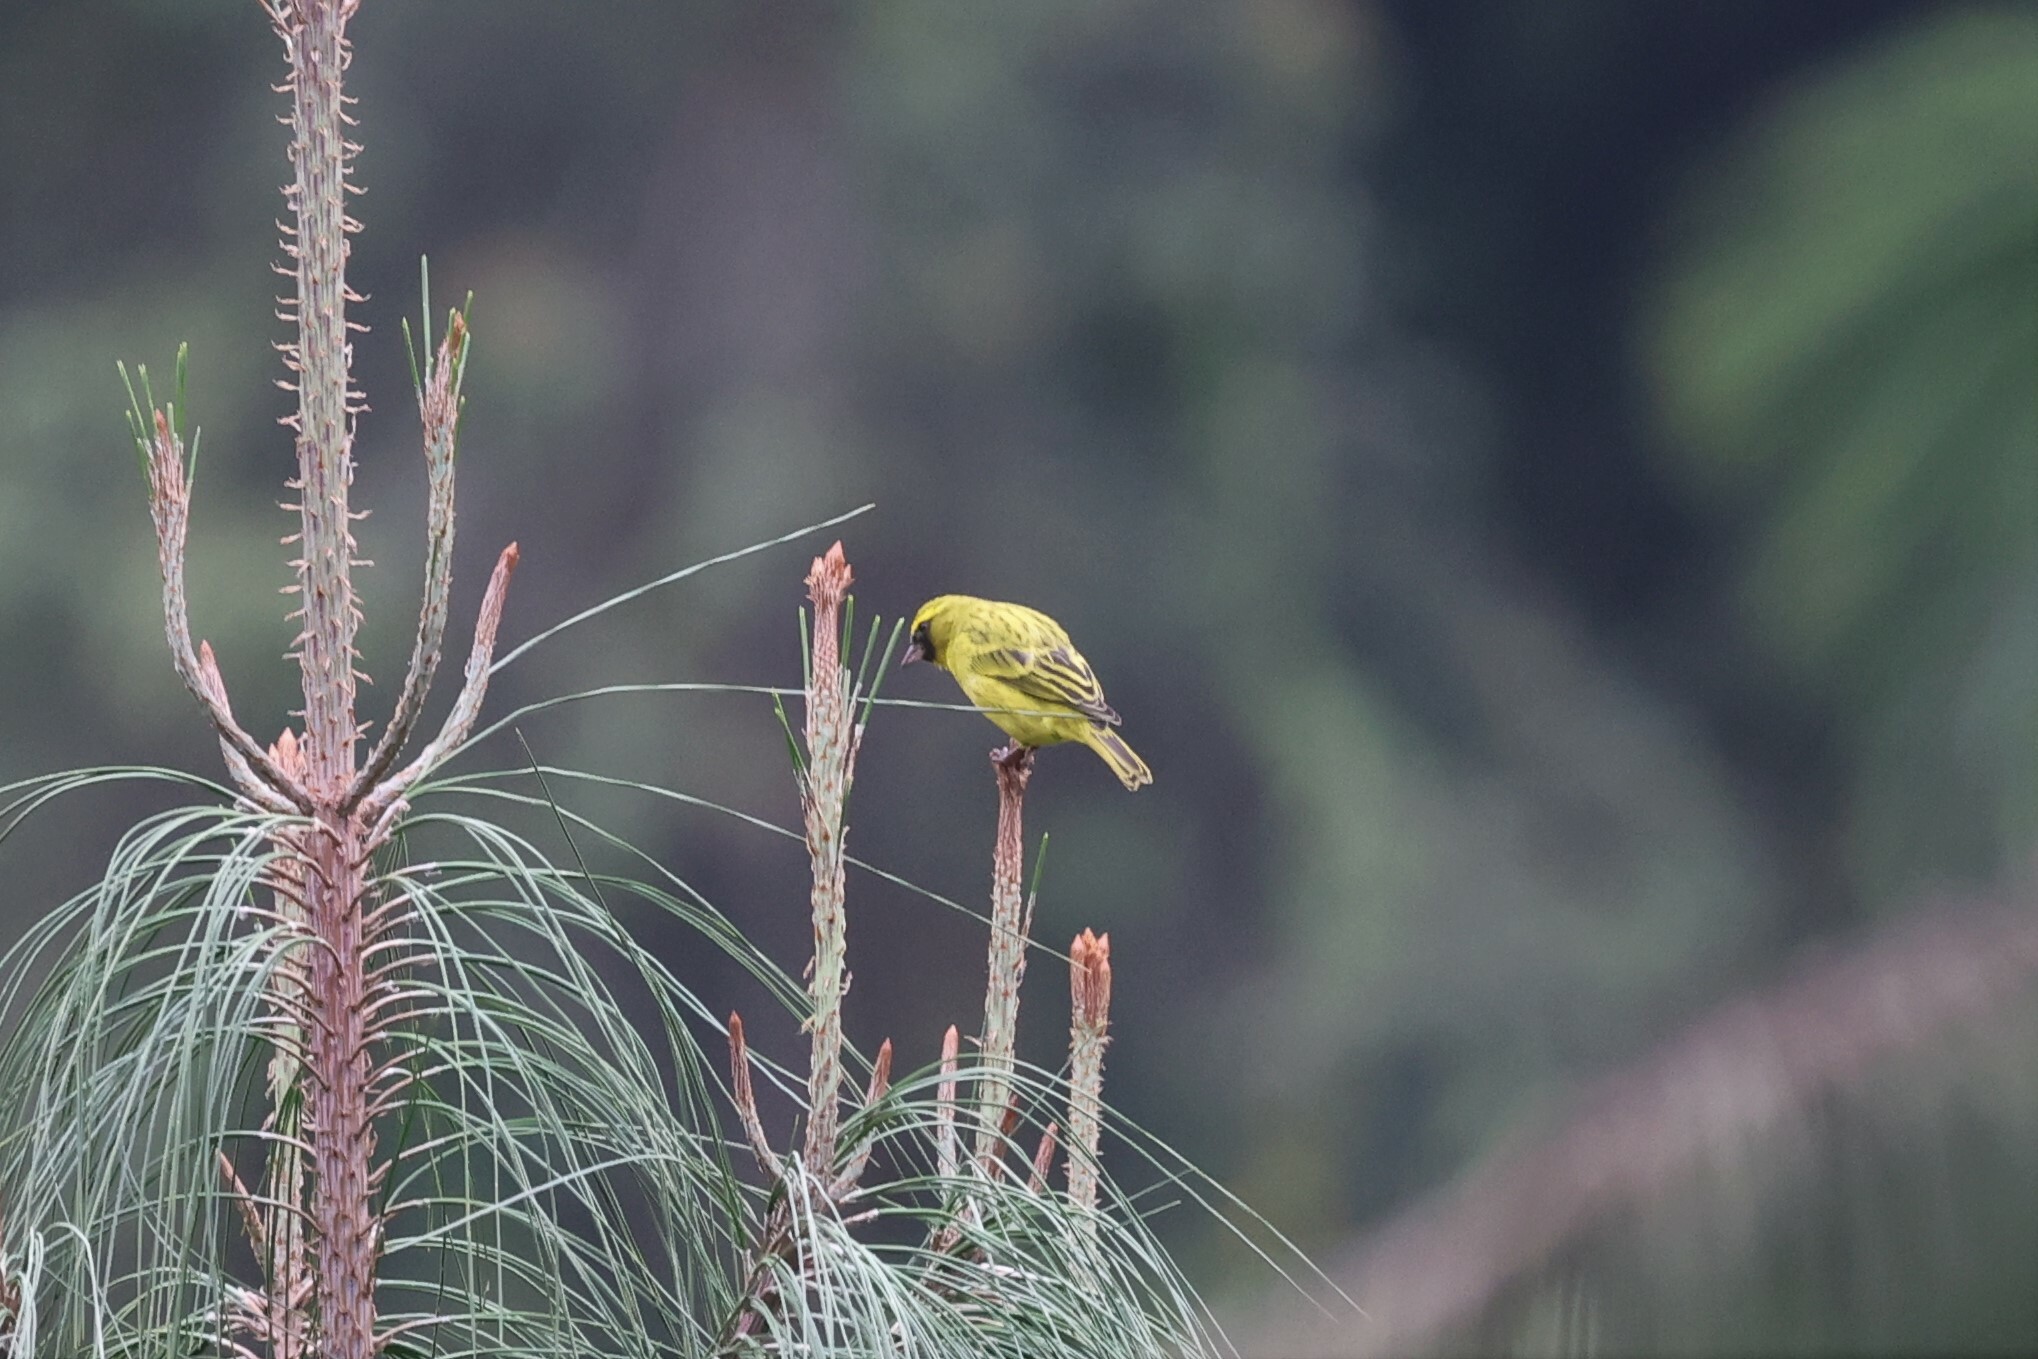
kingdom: Animalia
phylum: Chordata
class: Aves
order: Passeriformes
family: Fringillidae
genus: Crithagra
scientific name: Crithagra frontalis
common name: Western citril
